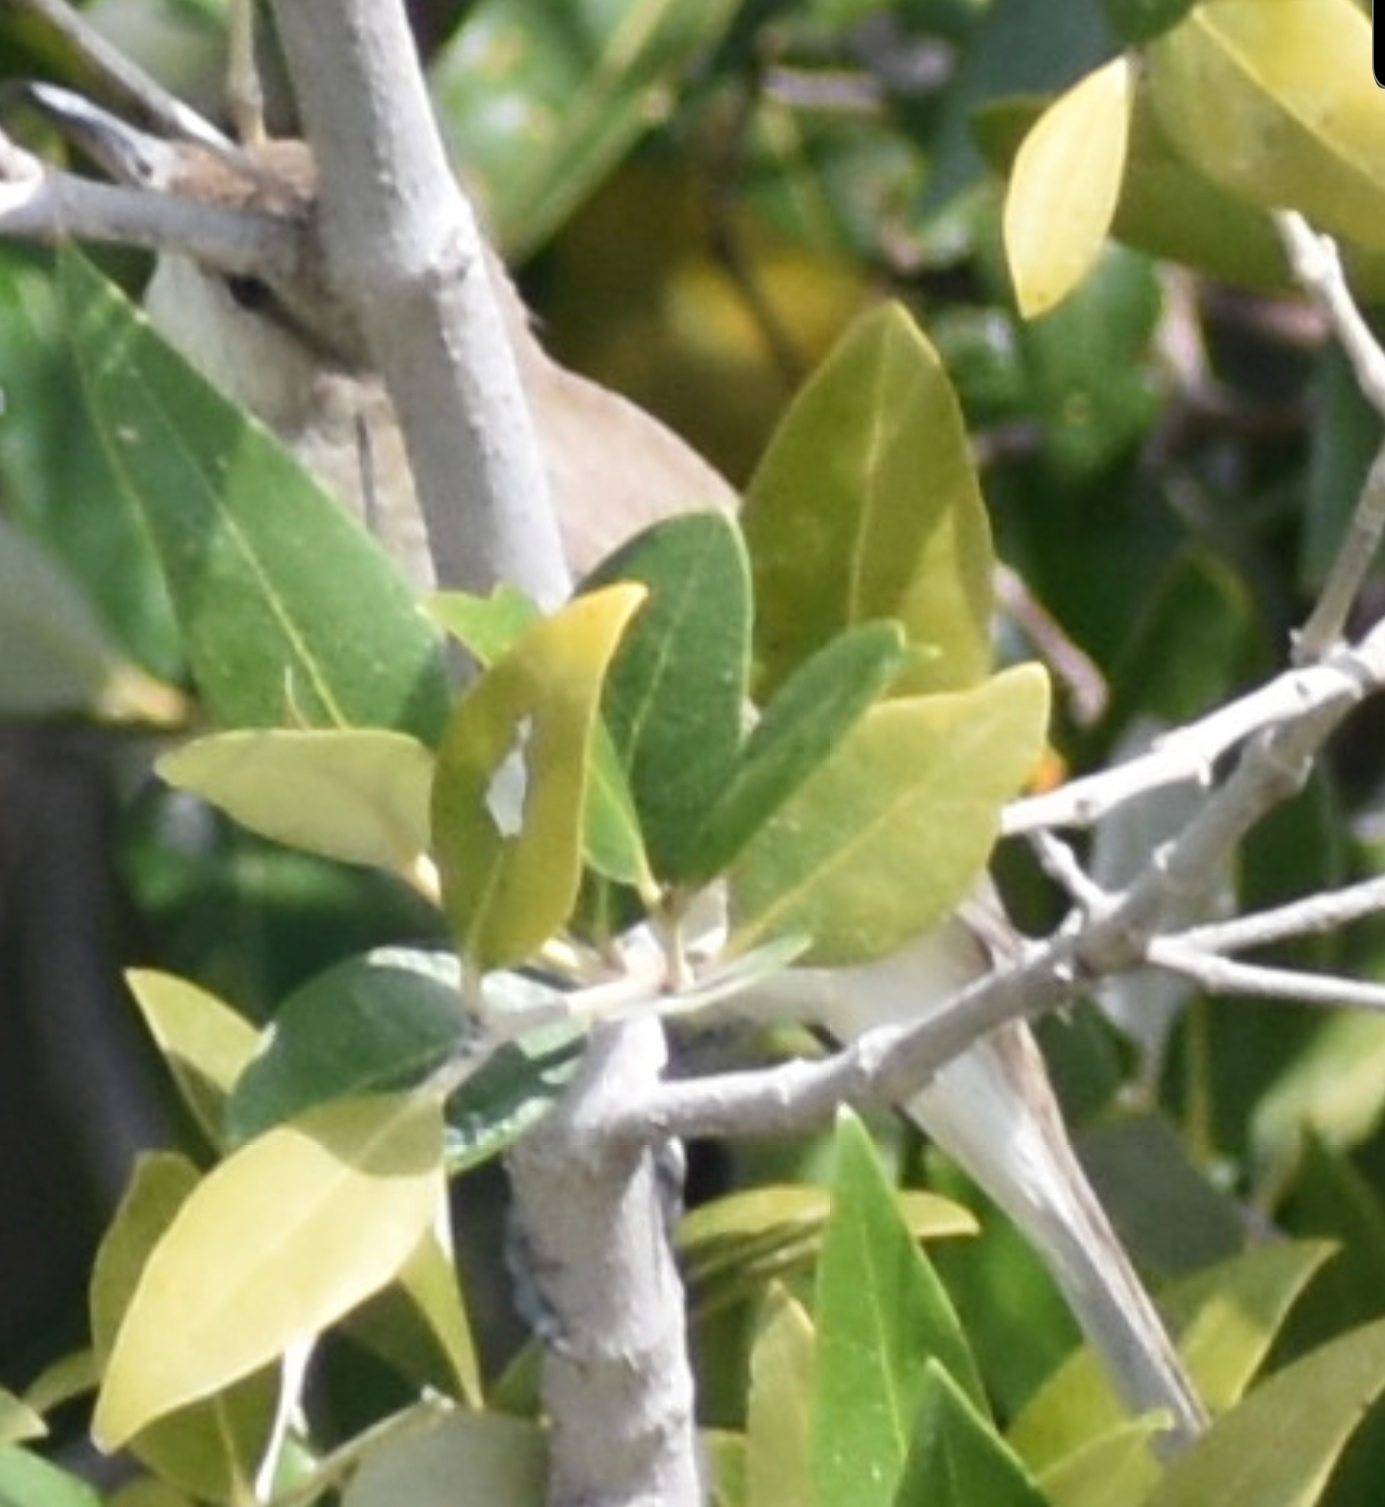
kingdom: Animalia
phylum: Chordata
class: Aves
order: Passeriformes
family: Acrocephalidae
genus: Acrocephalus
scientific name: Acrocephalus stentoreus
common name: Clamorous reed warbler
